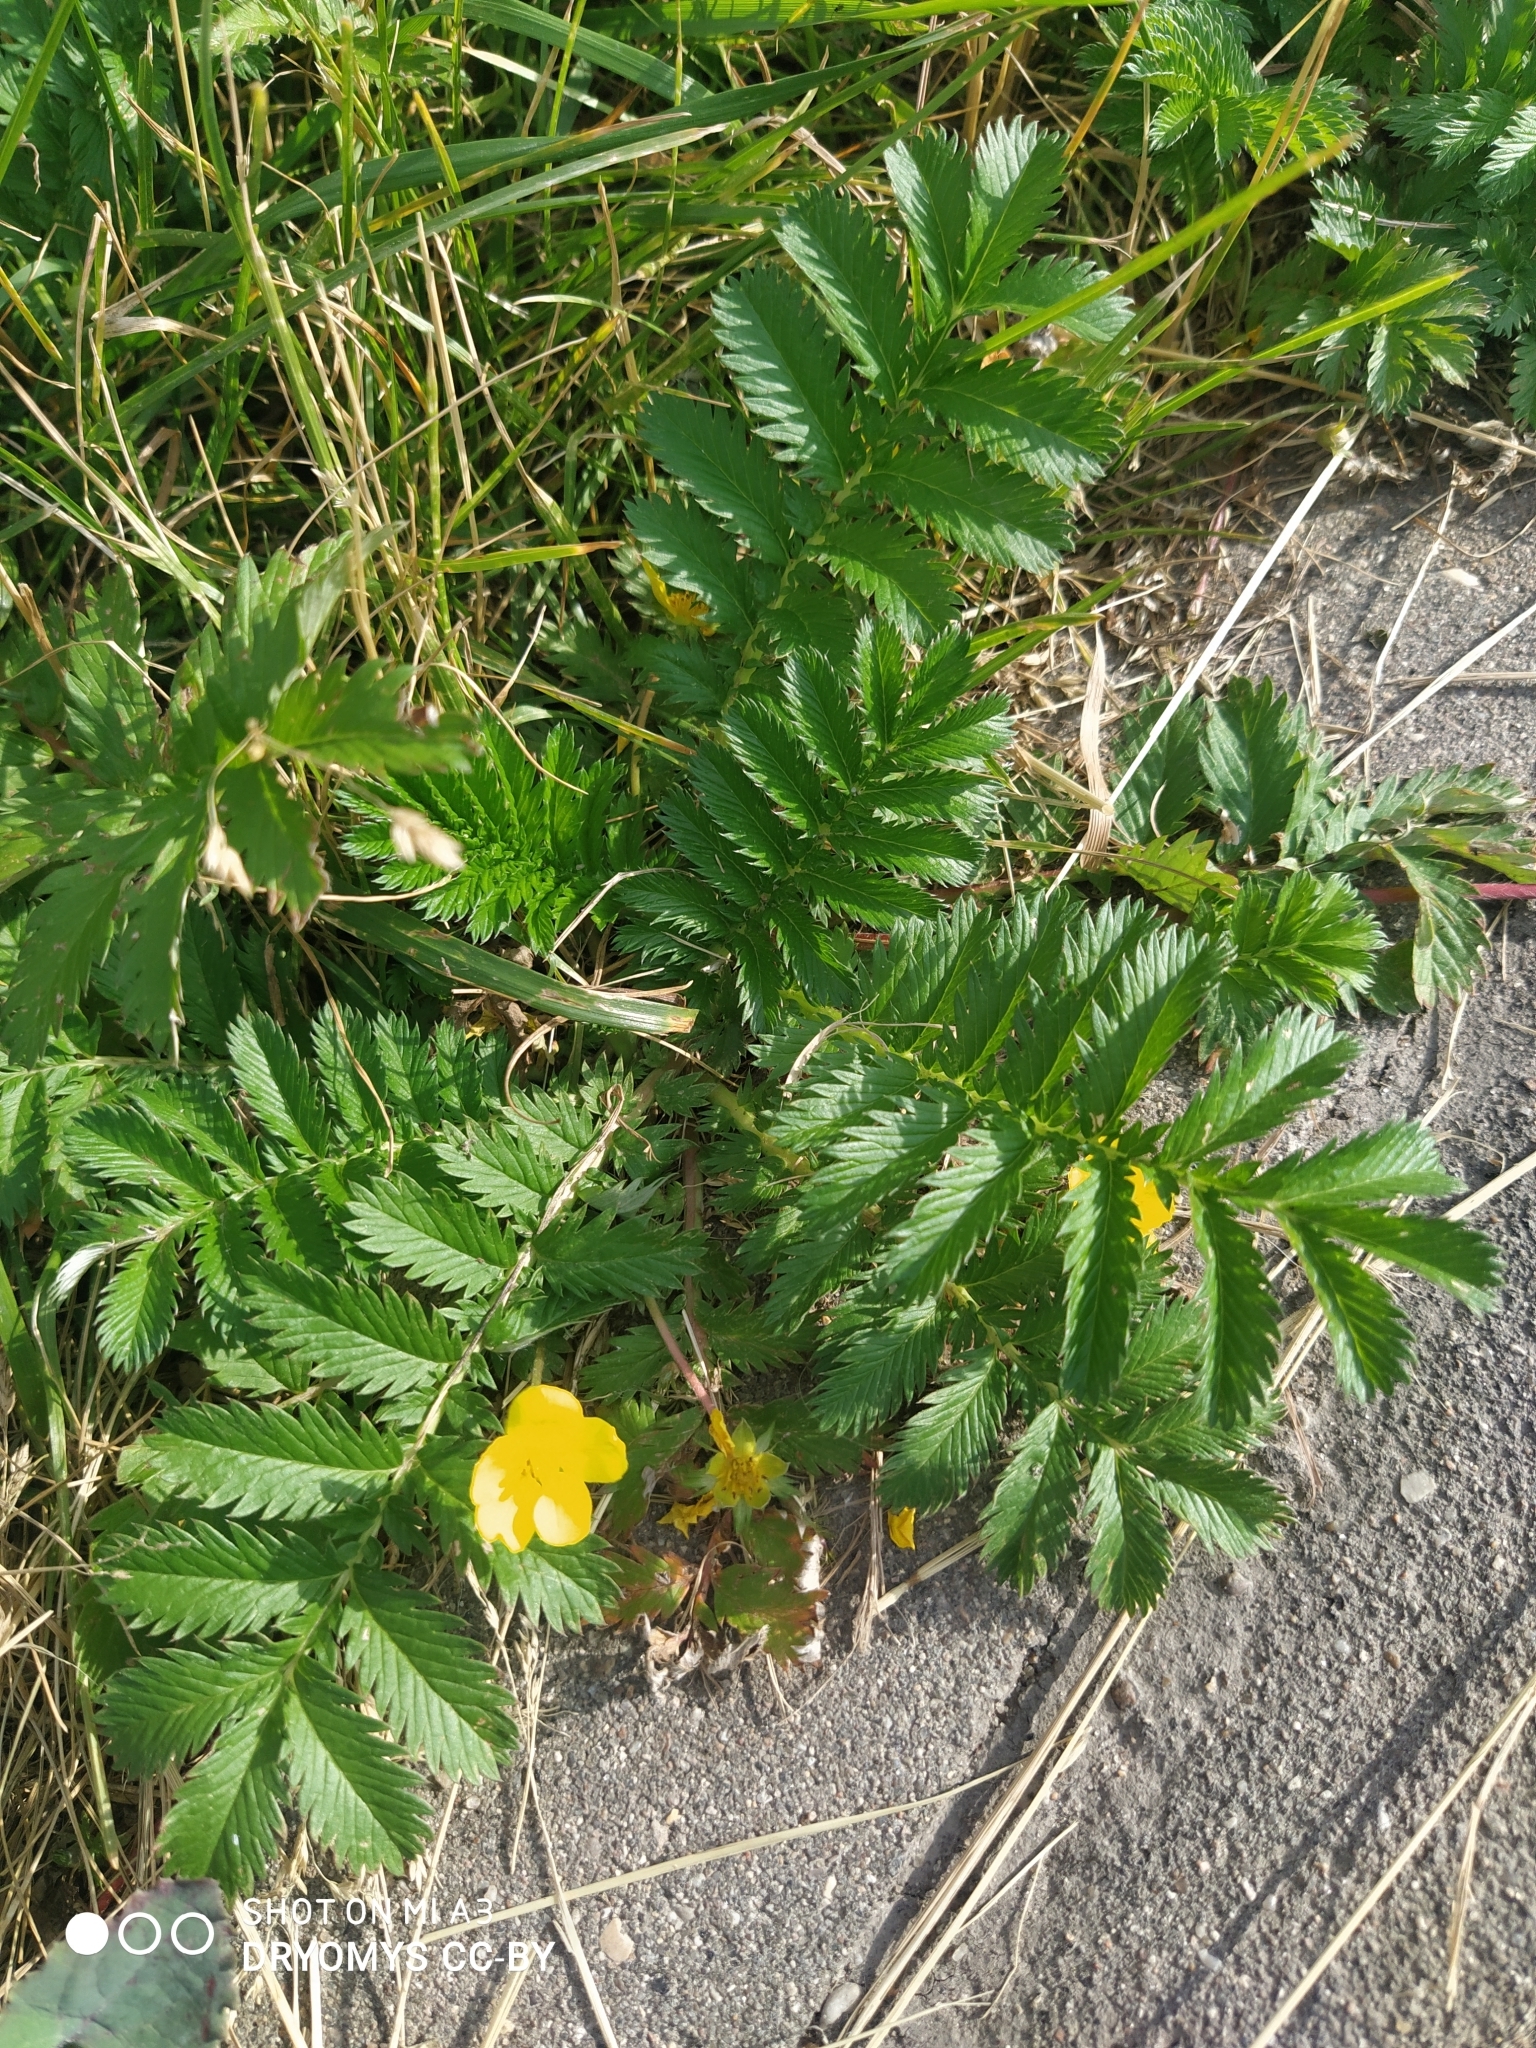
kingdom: Plantae
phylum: Tracheophyta
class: Magnoliopsida
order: Rosales
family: Rosaceae
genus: Argentina
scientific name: Argentina anserina
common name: Common silverweed
